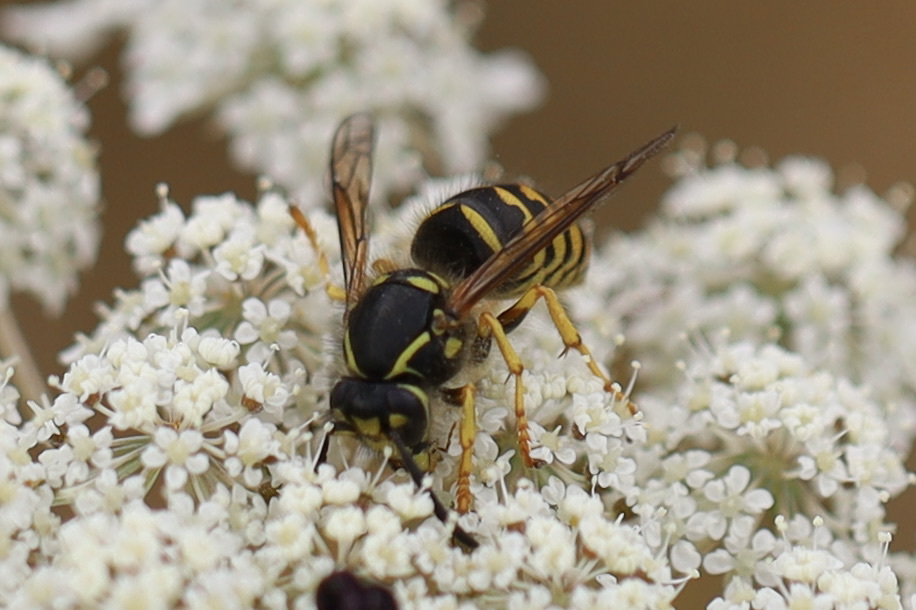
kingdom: Animalia
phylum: Arthropoda
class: Insecta
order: Hymenoptera
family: Vespidae
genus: Dolichovespula
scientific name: Dolichovespula arenaria
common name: Aerial yellowjacket
